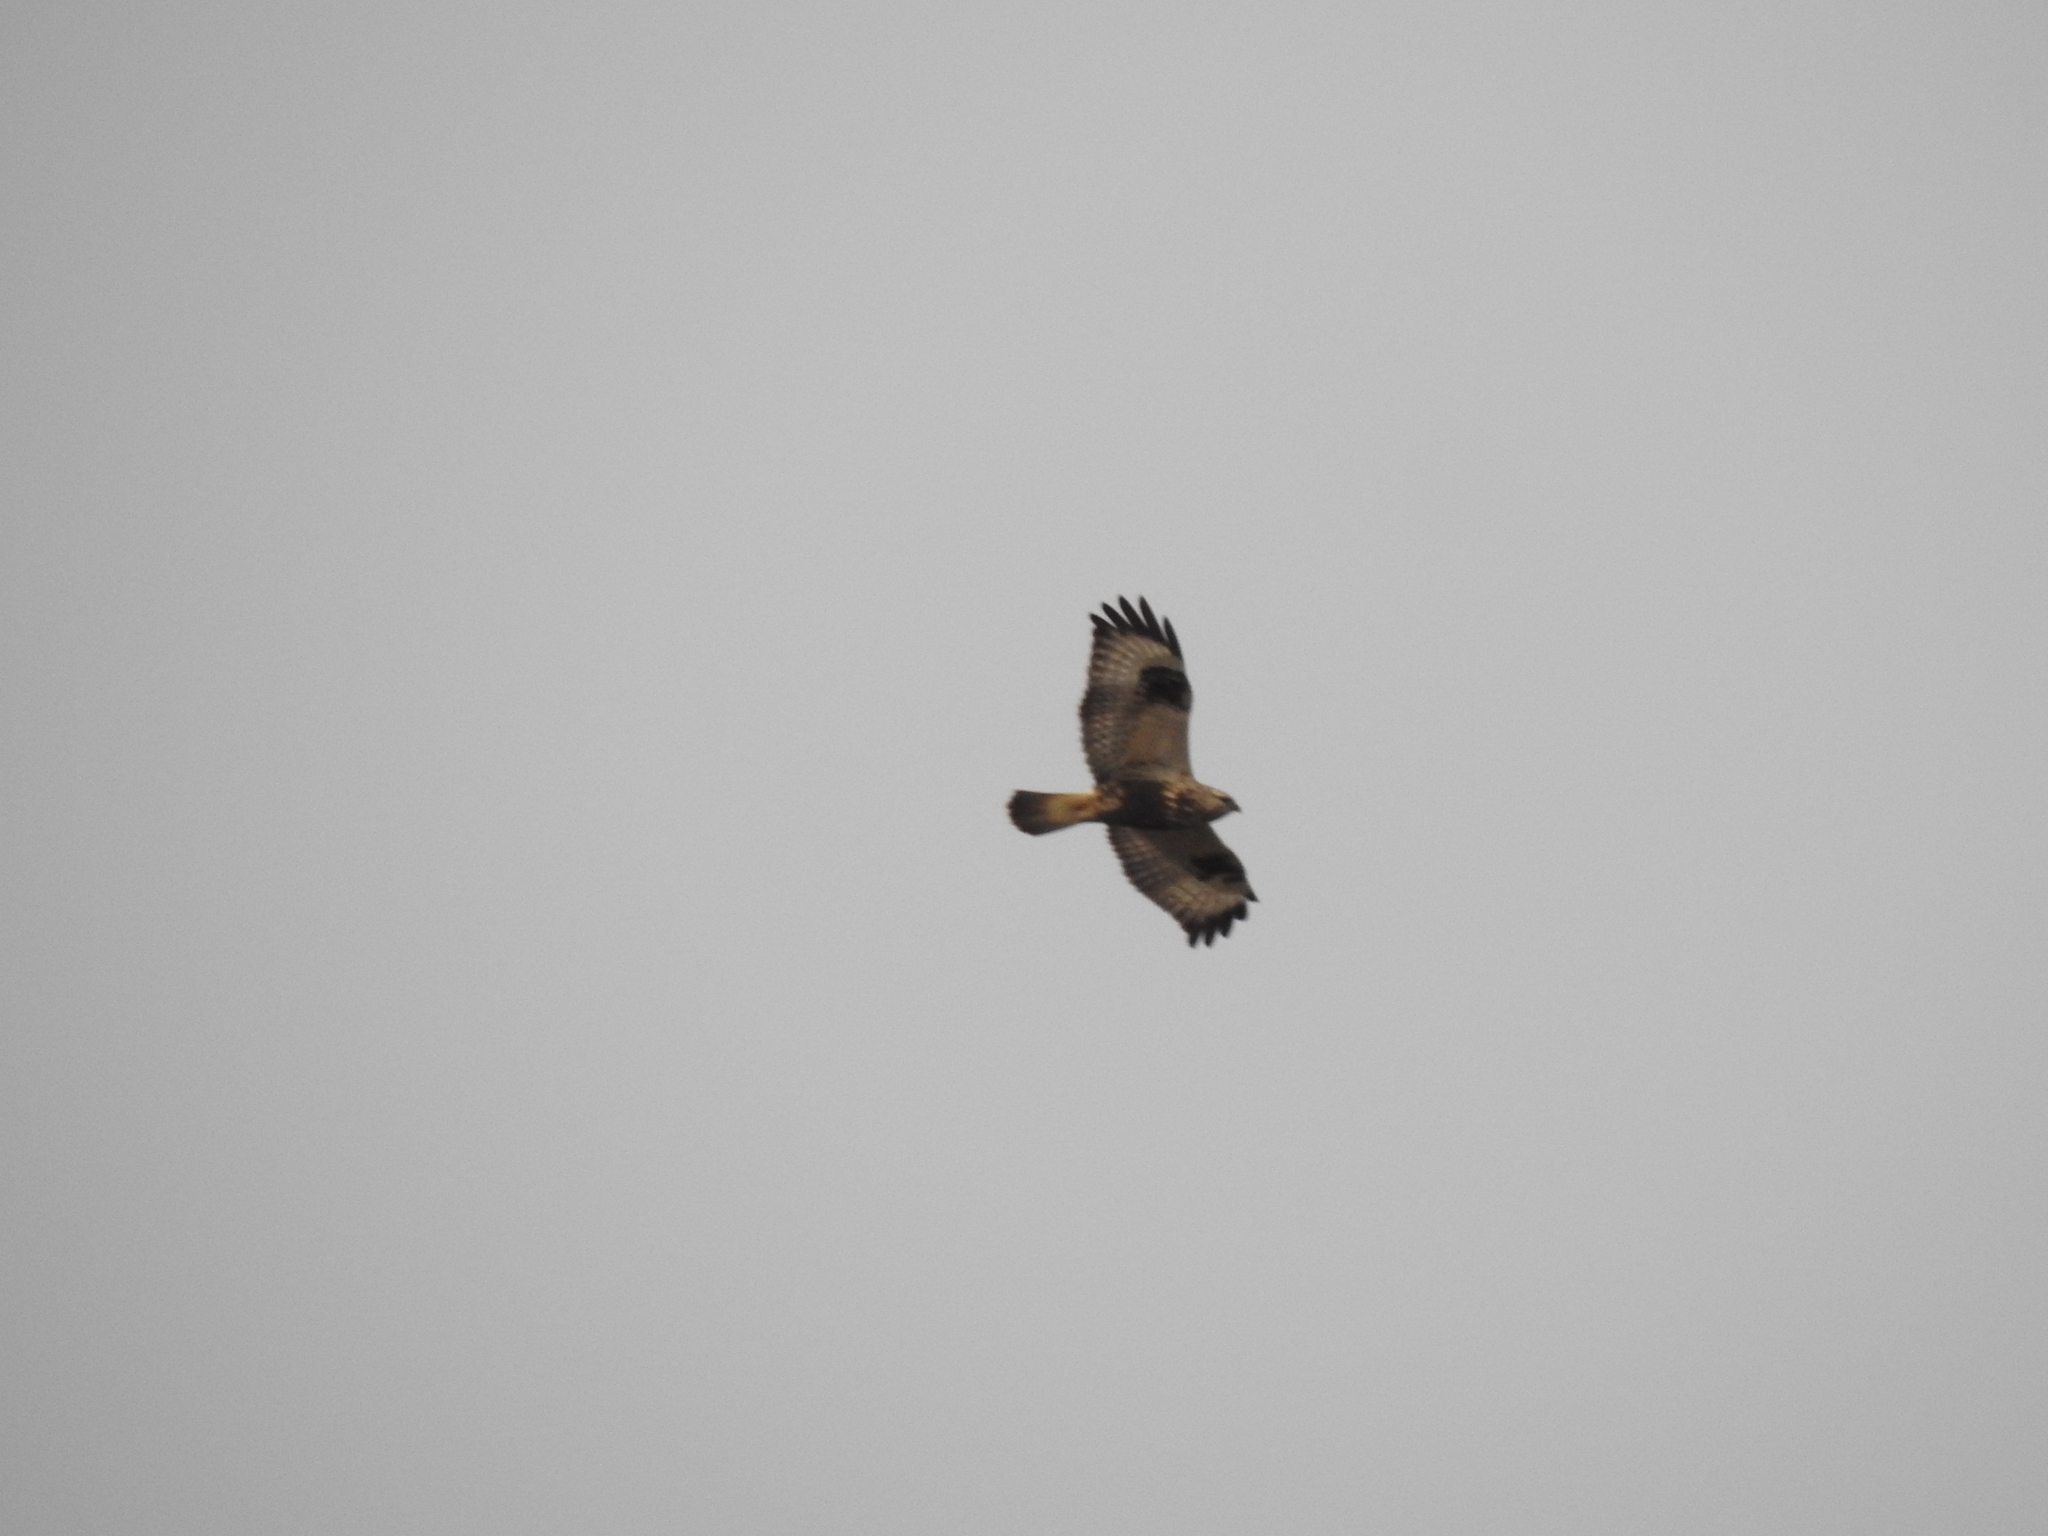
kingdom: Animalia
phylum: Chordata
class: Aves
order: Accipitriformes
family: Accipitridae
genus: Buteo
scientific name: Buteo lagopus
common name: Rough-legged buzzard
